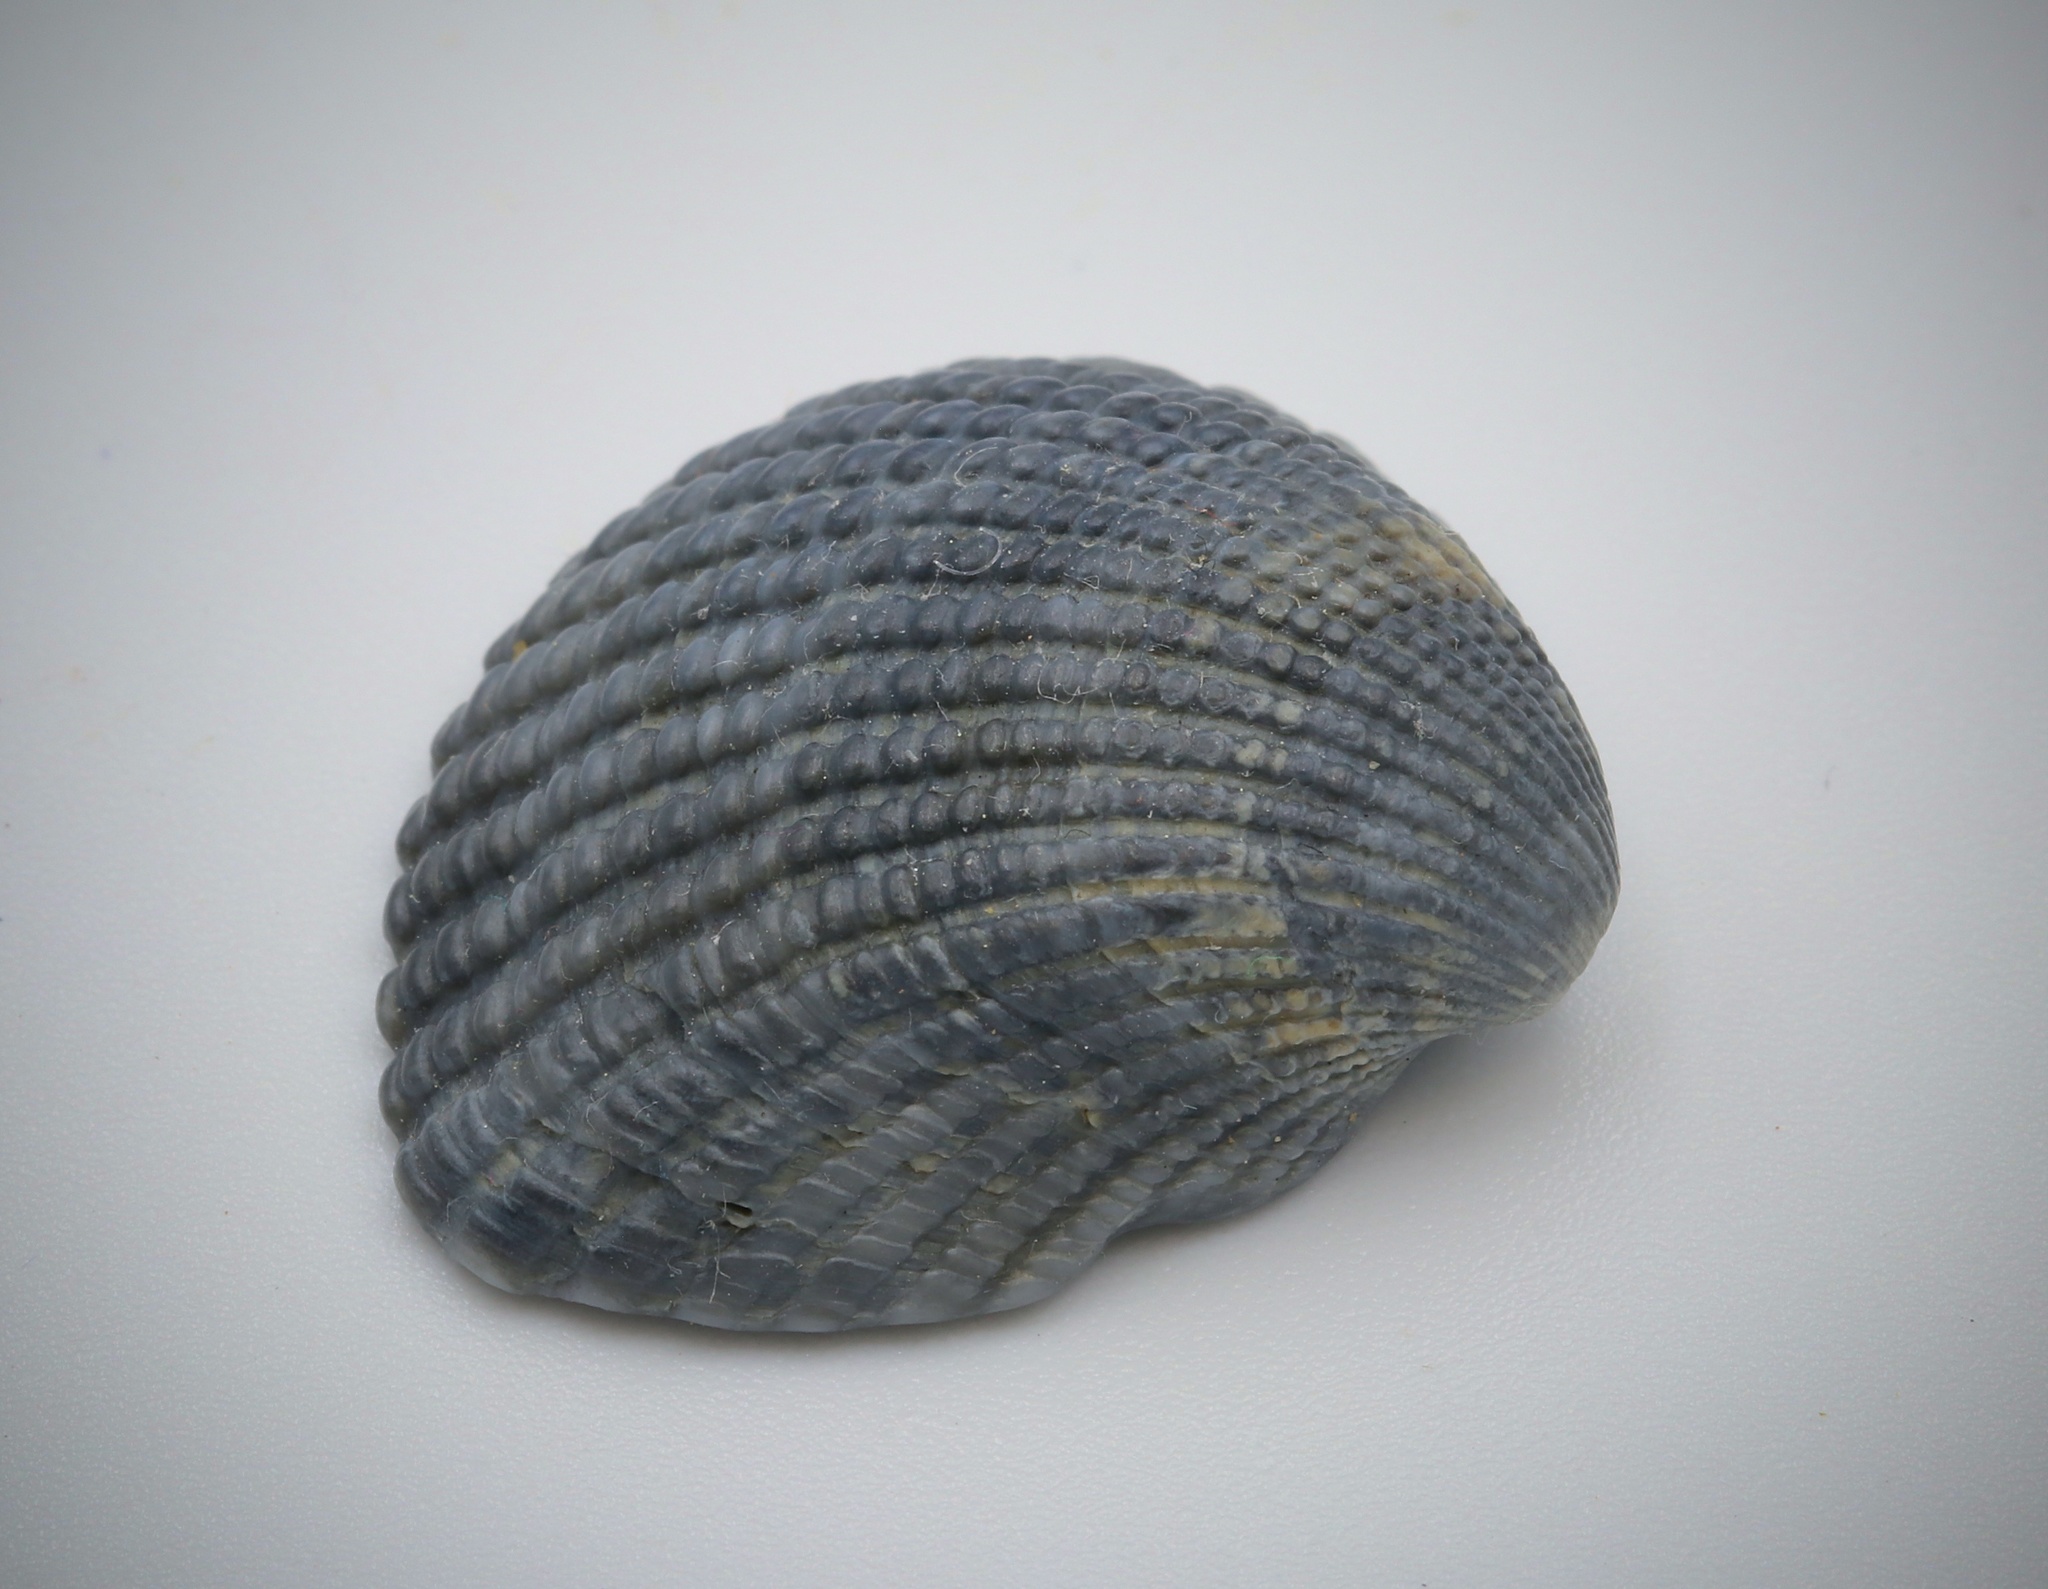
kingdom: Animalia
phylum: Mollusca
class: Bivalvia
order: Arcida
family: Arcidae
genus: Anadara
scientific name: Anadara brasiliana
